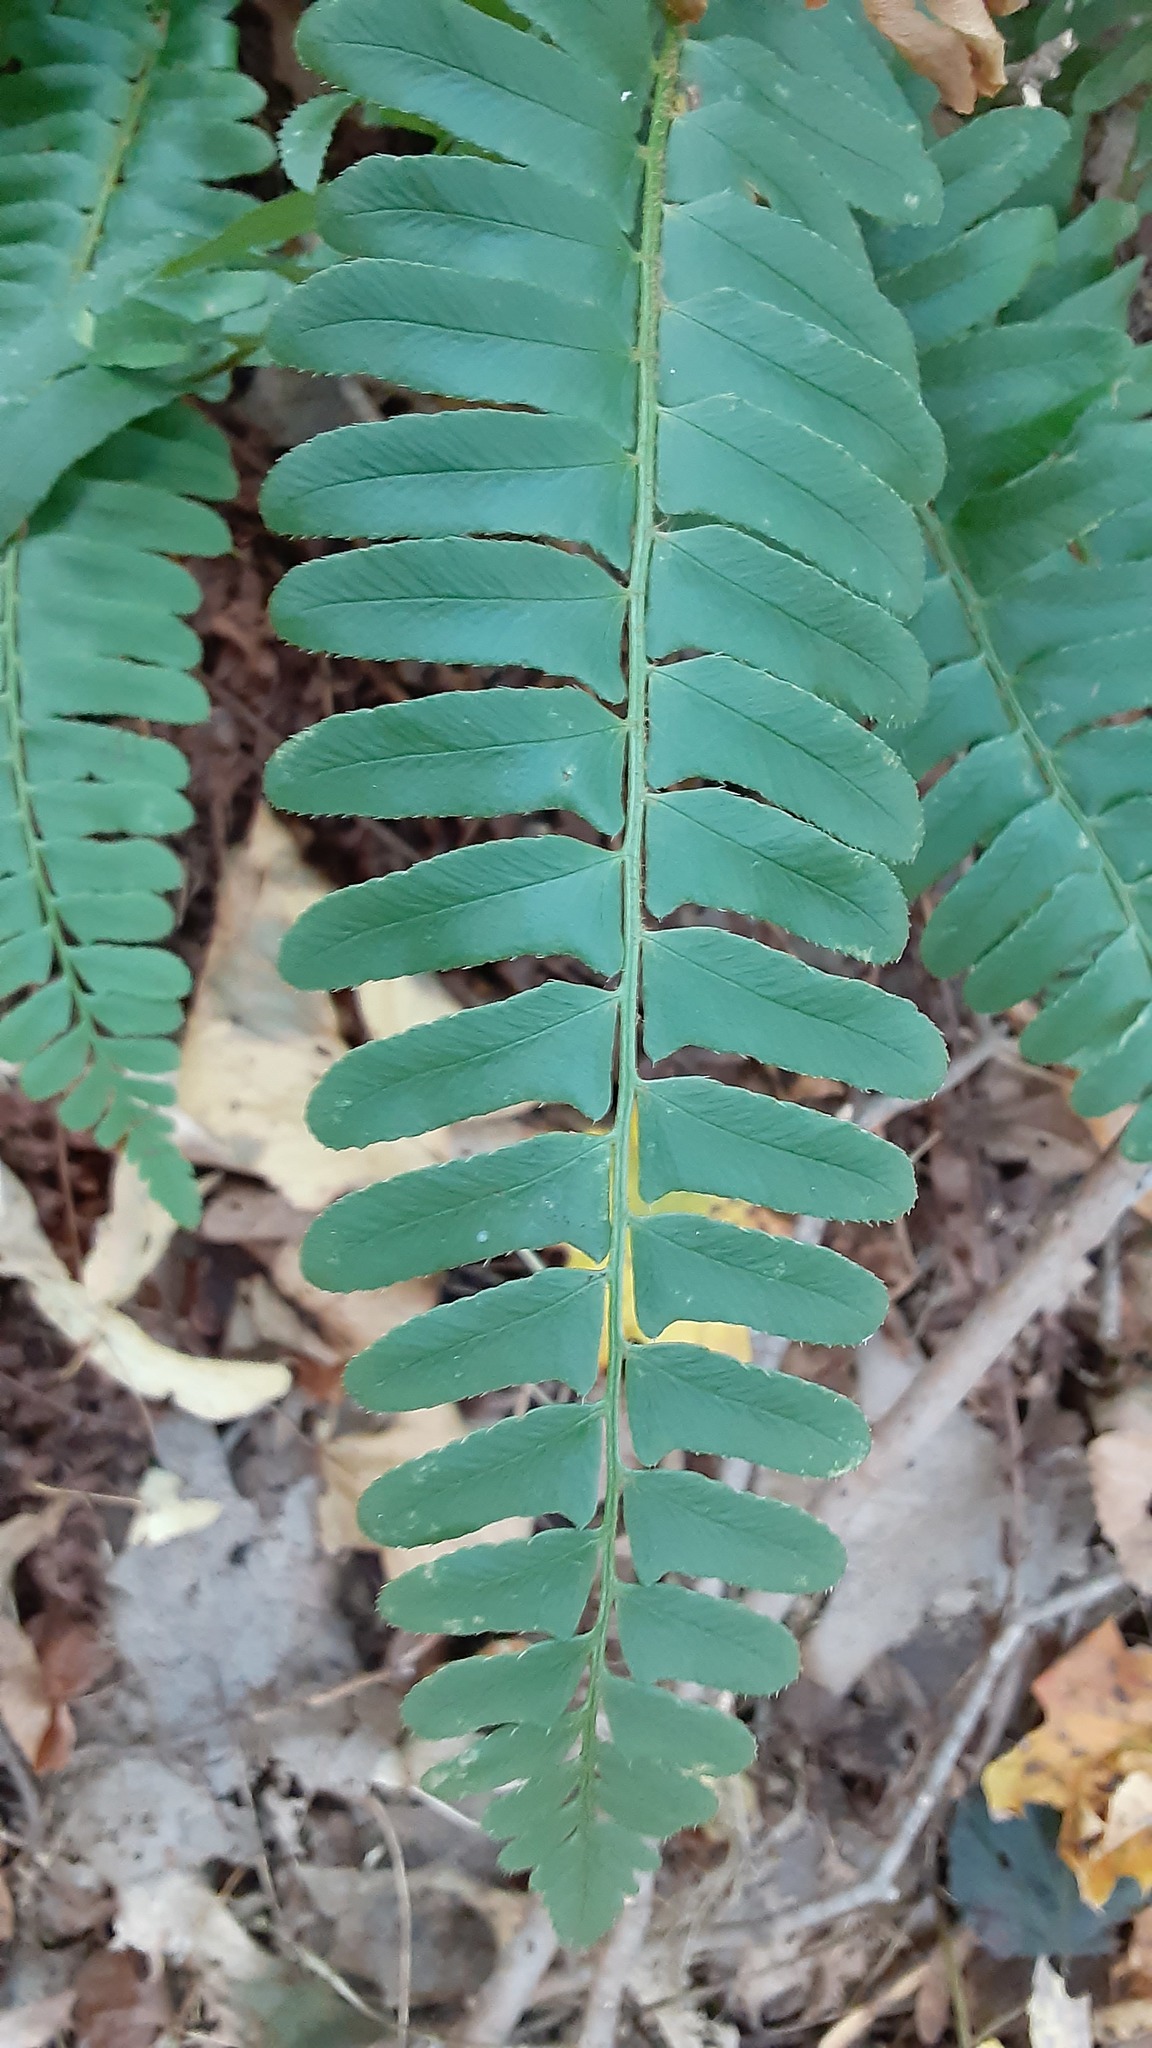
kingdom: Plantae
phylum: Tracheophyta
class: Polypodiopsida
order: Polypodiales
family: Dryopteridaceae
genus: Polystichum
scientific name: Polystichum acrostichoides
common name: Christmas fern
